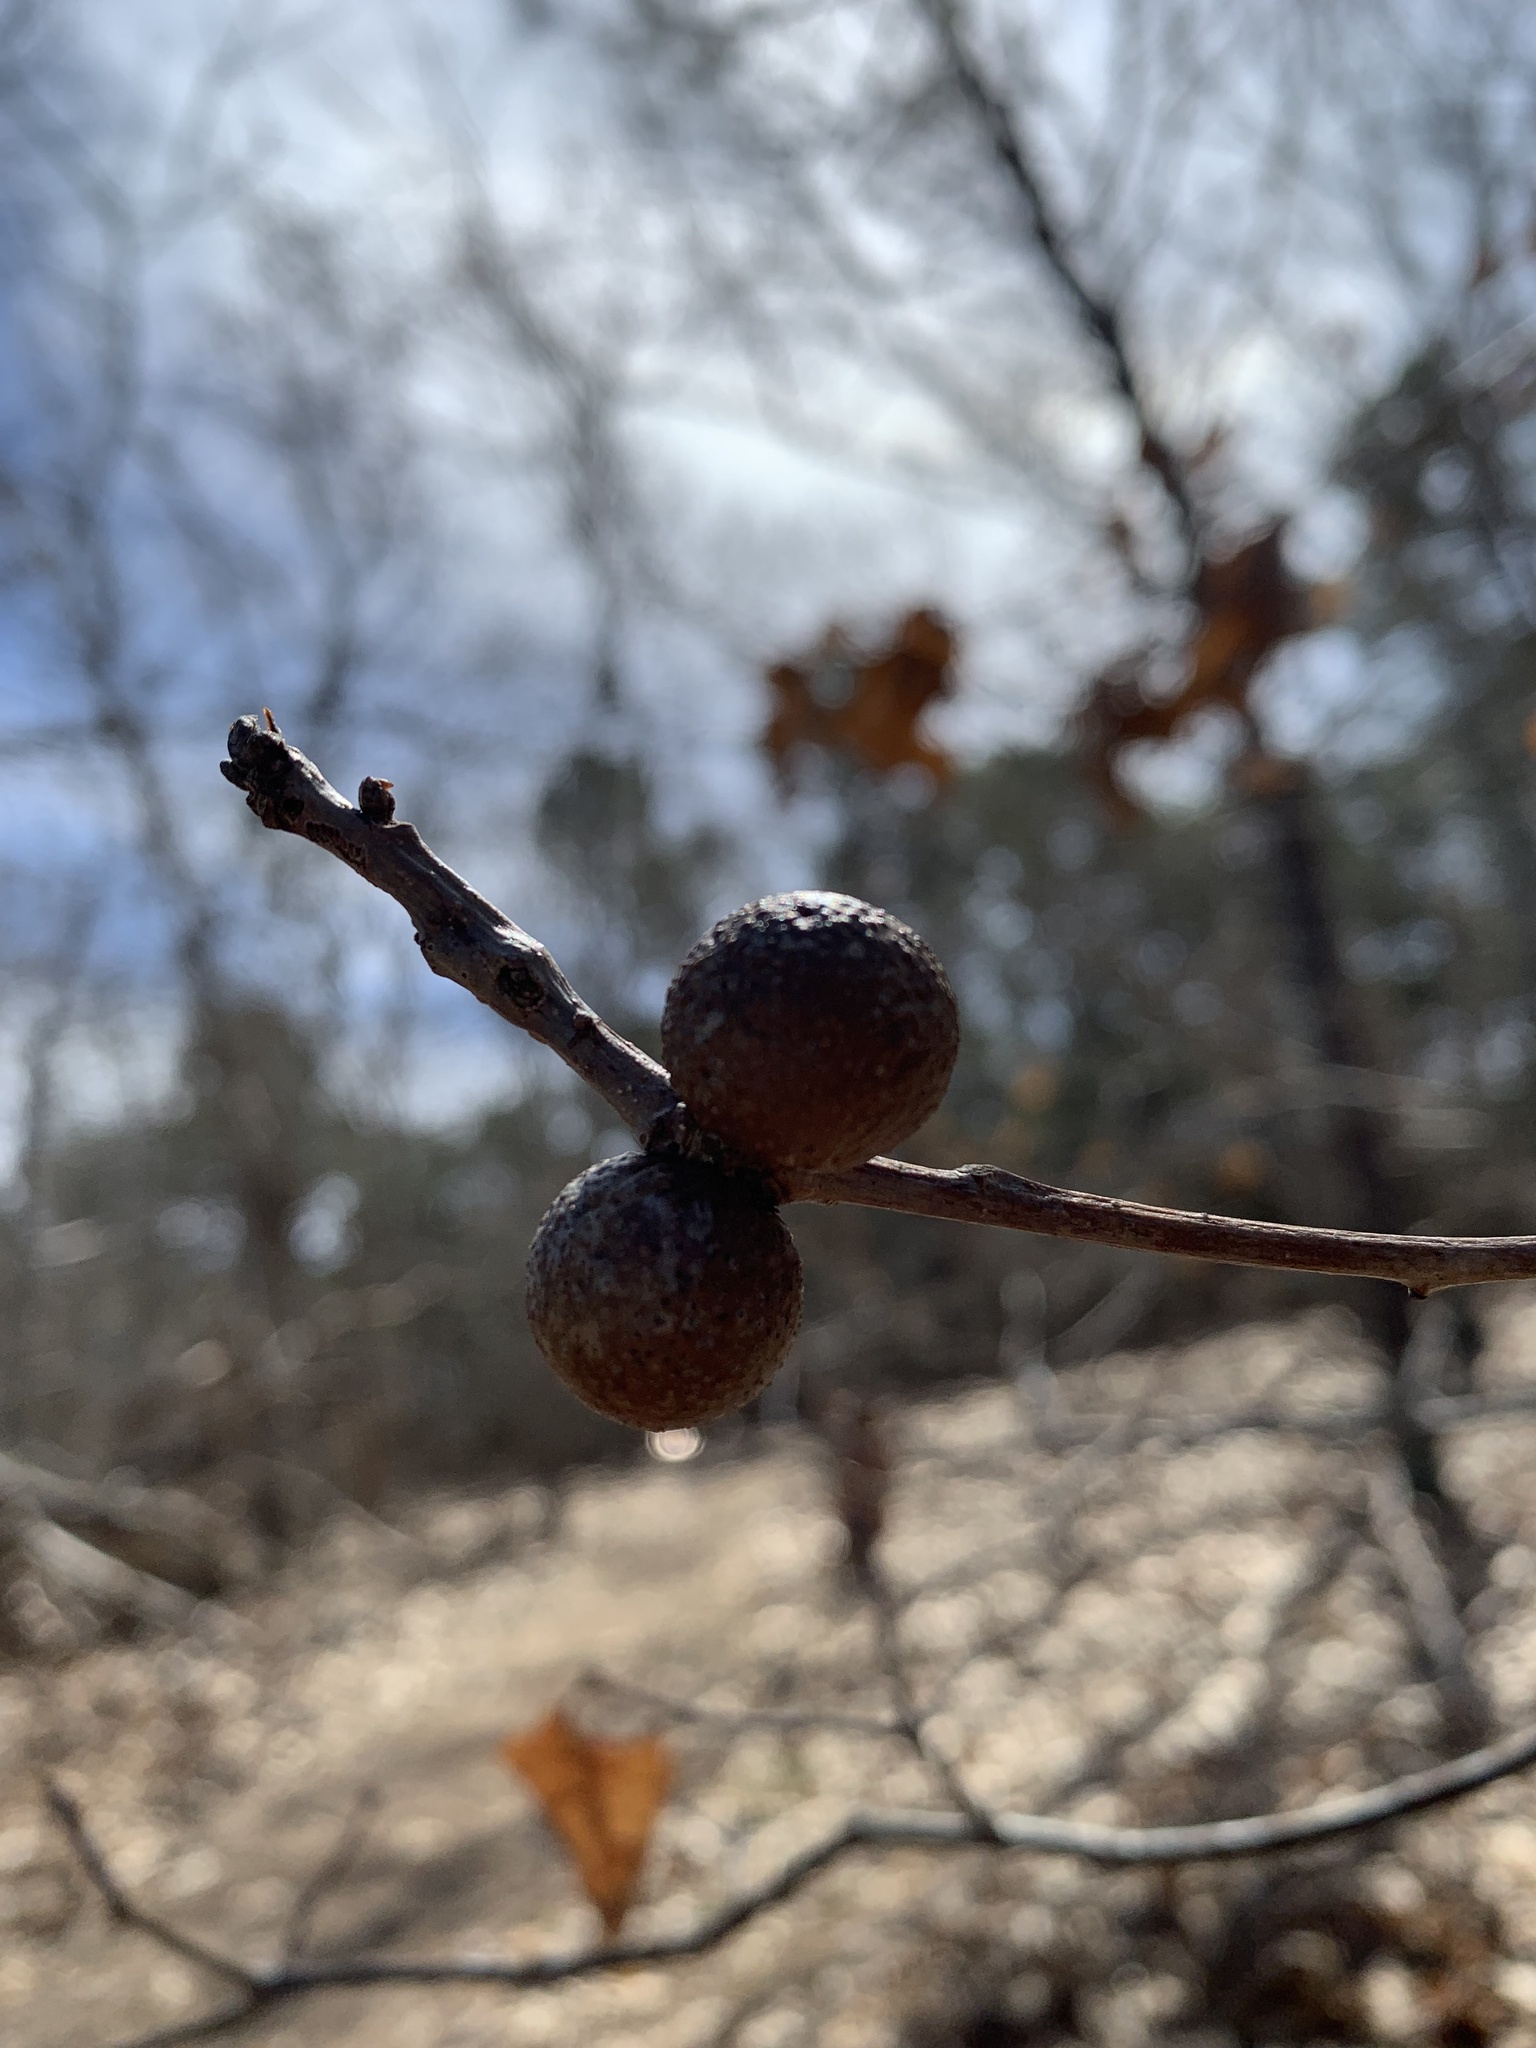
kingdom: Animalia
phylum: Arthropoda
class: Insecta
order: Hymenoptera
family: Cynipidae
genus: Disholcaspis
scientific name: Disholcaspis quercusglobulus
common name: Round bullet gall wasp
